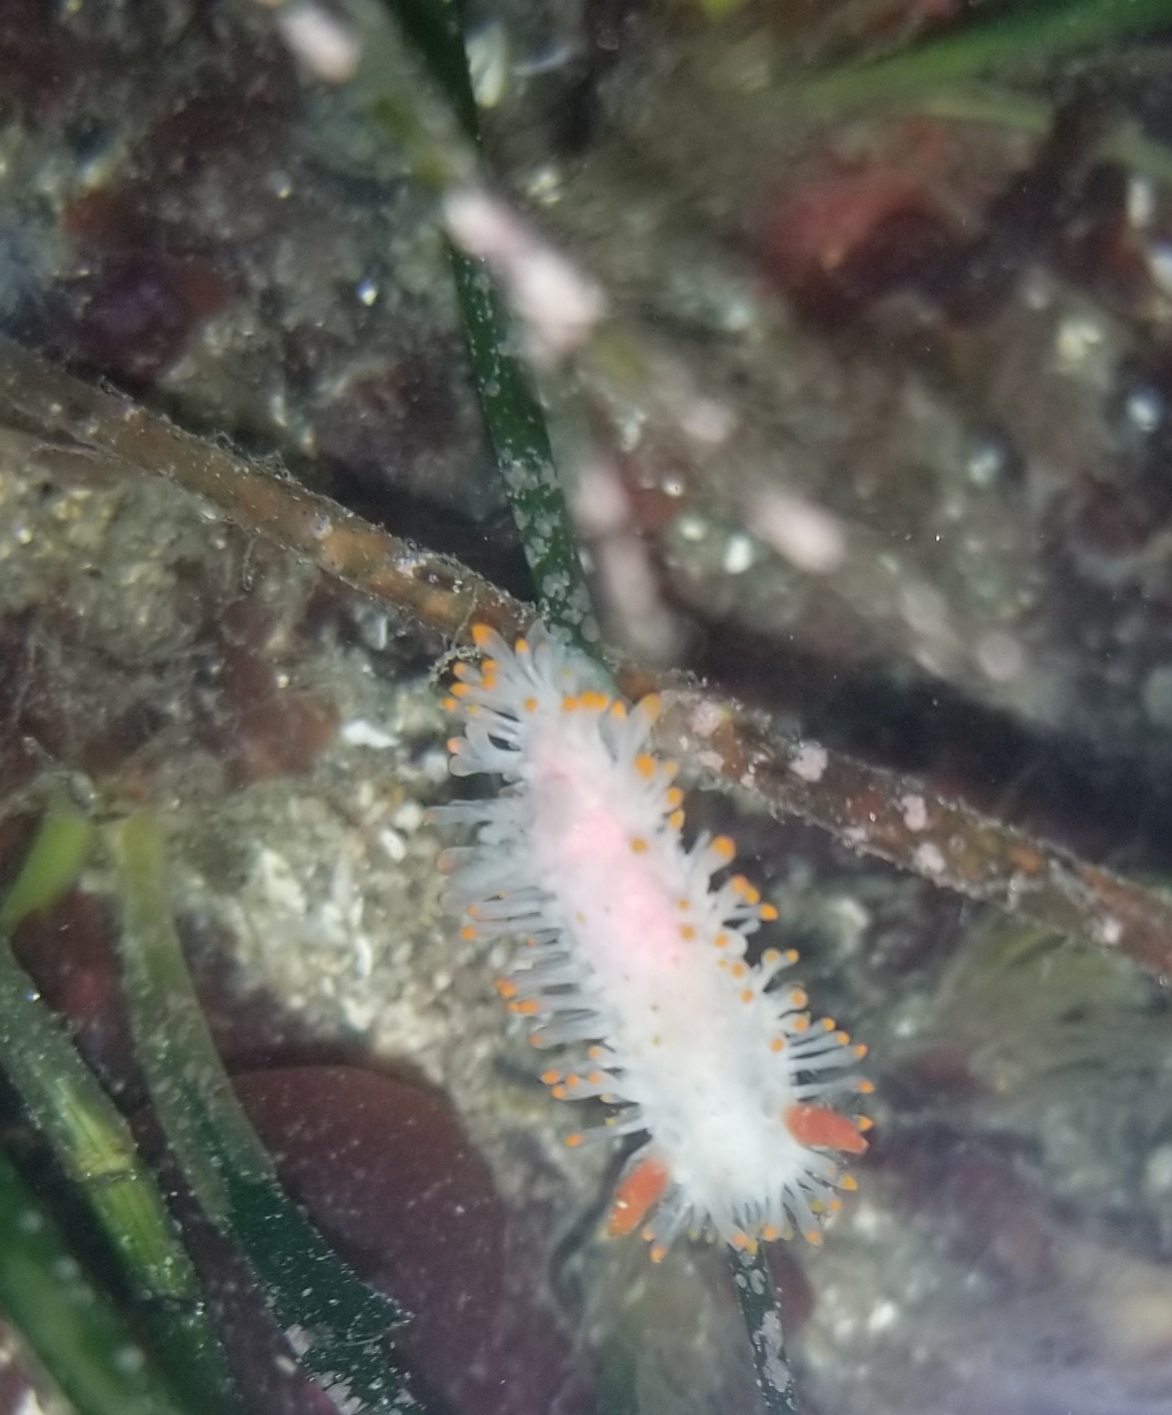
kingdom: Animalia
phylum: Mollusca
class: Gastropoda
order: Nudibranchia
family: Polyceridae
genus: Limacia
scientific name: Limacia cockerelli
